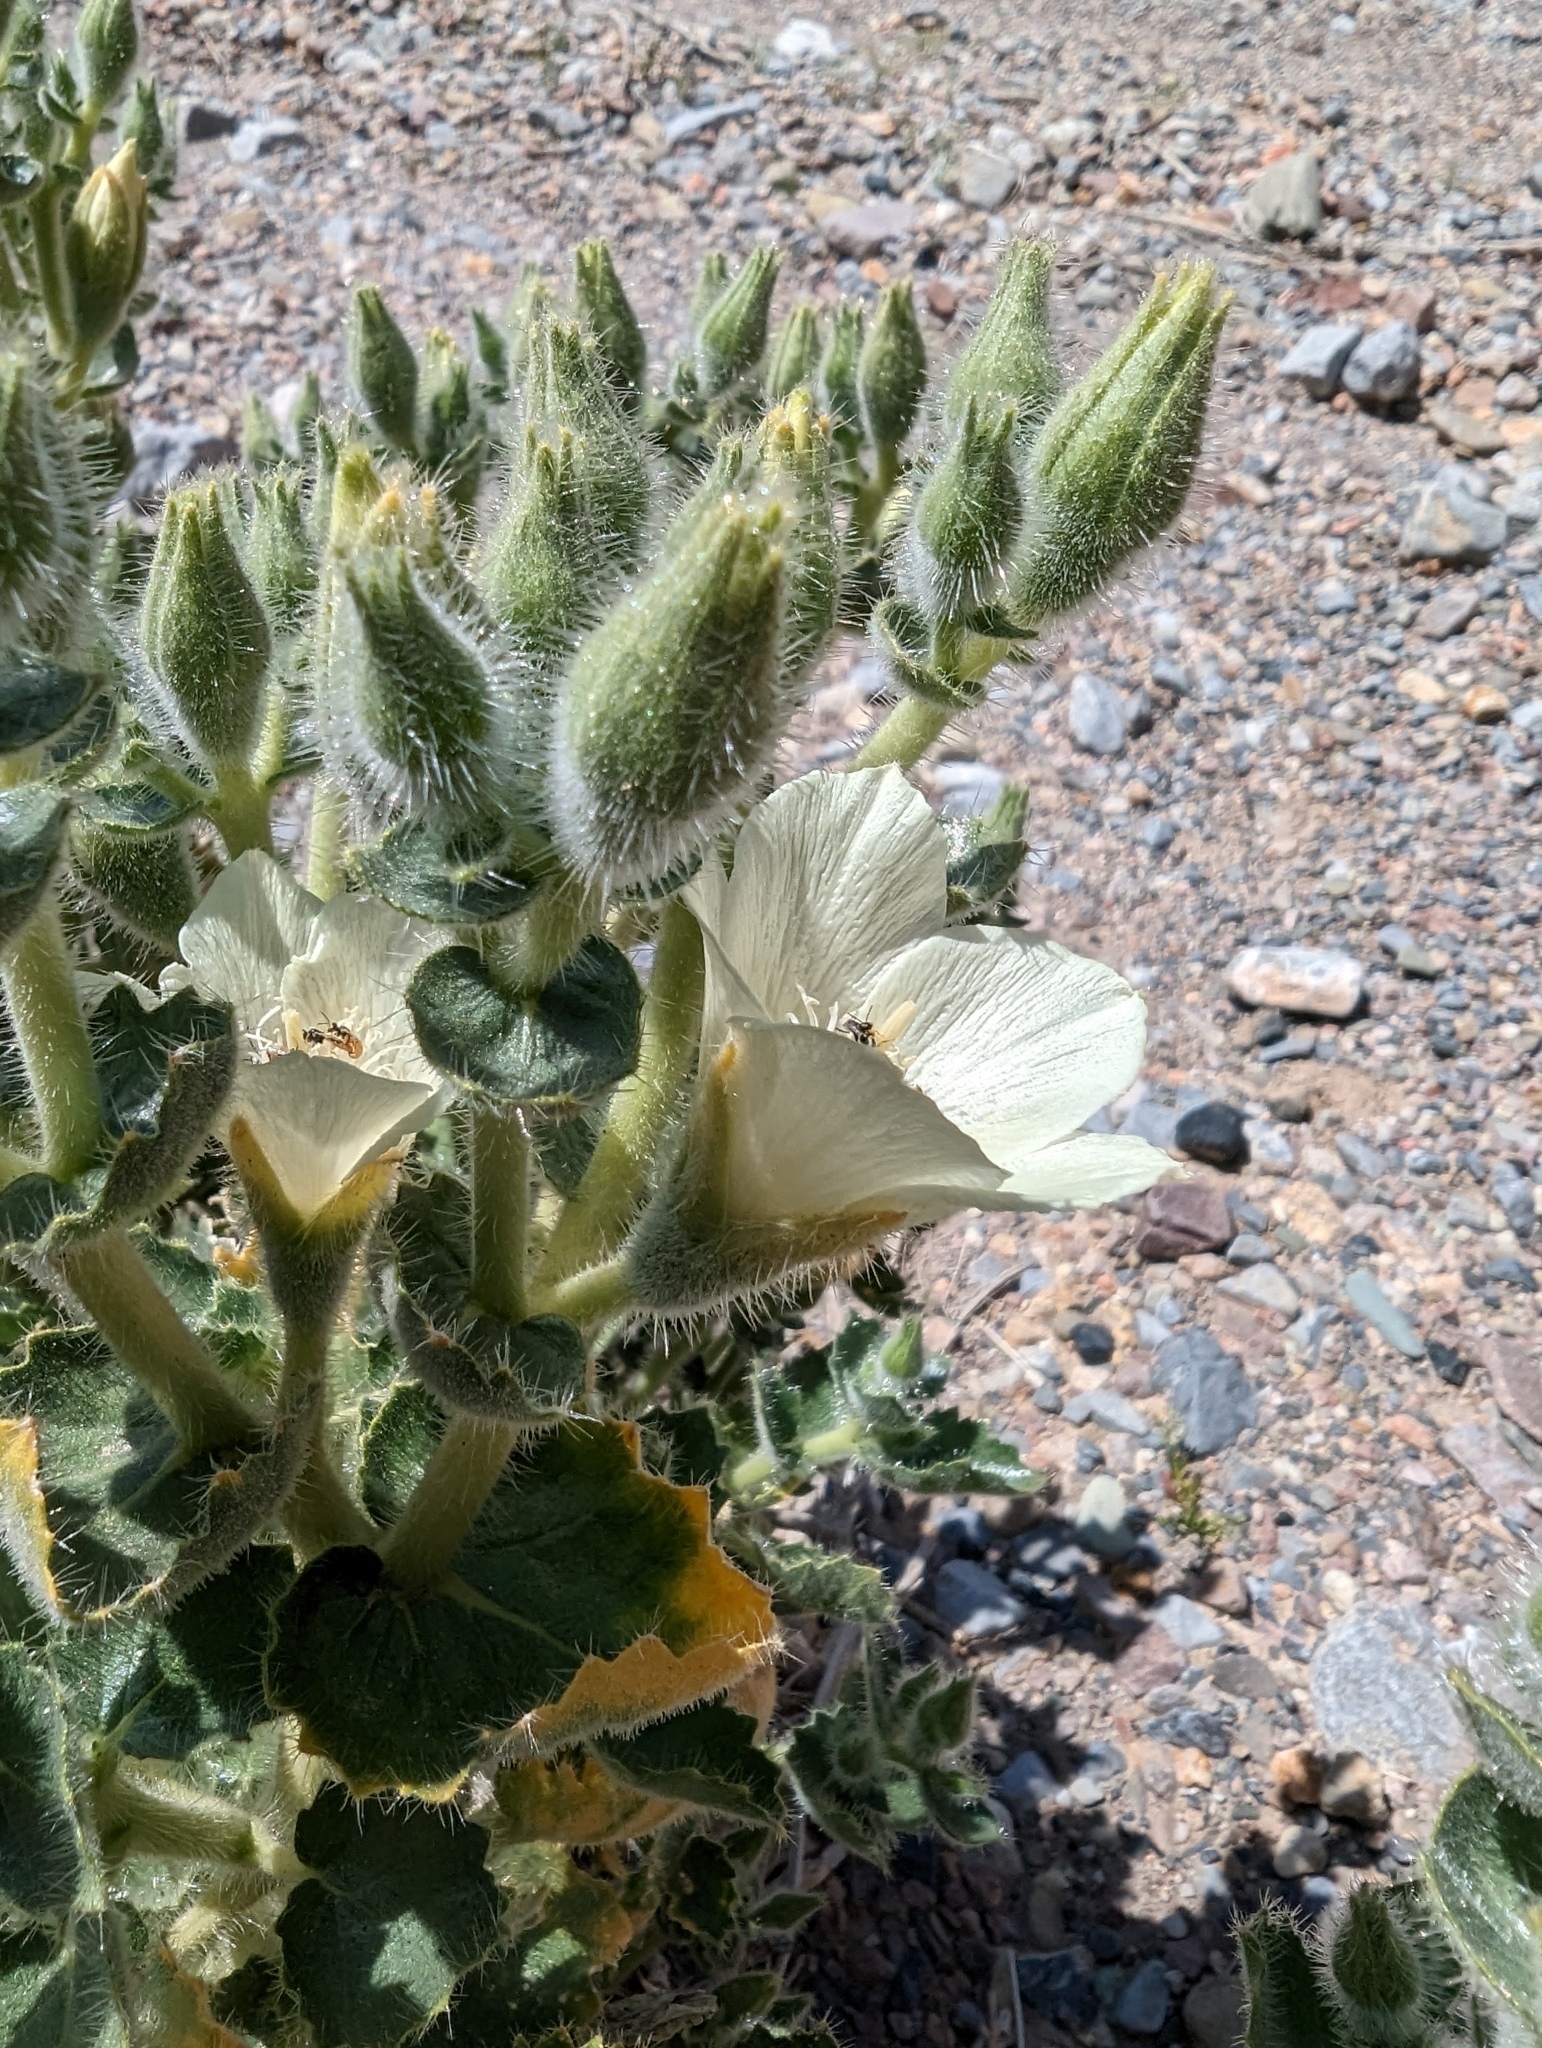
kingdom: Plantae
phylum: Tracheophyta
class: Magnoliopsida
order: Cornales
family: Loasaceae
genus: Eucnide
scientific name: Eucnide urens
